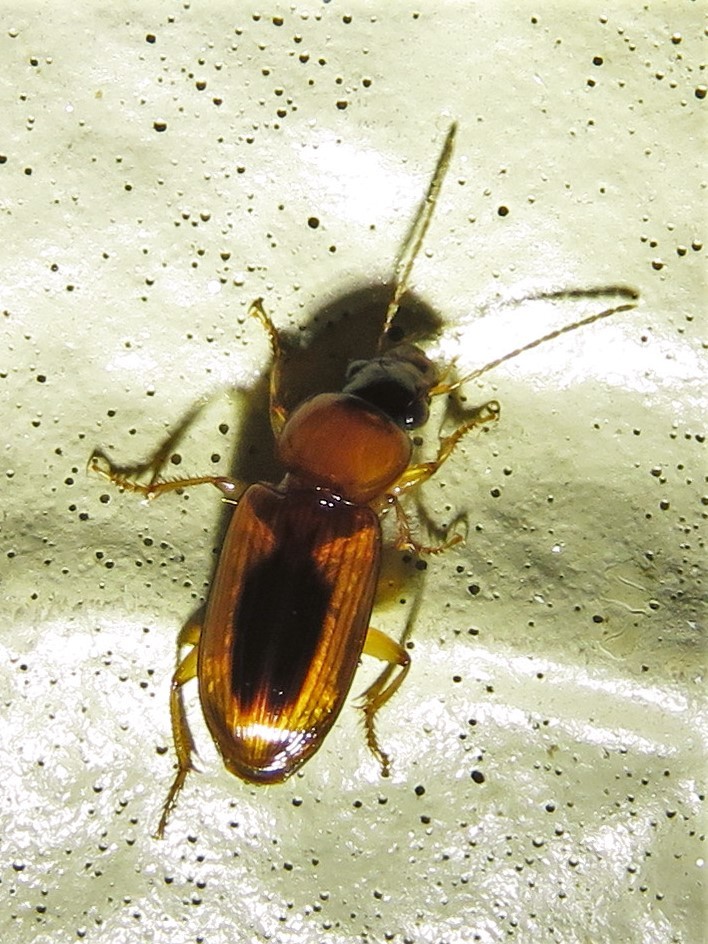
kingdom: Animalia
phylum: Arthropoda
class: Insecta
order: Coleoptera
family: Carabidae
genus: Stenolophus
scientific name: Stenolophus lecontei
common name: Leconte's seedcorn beetle
